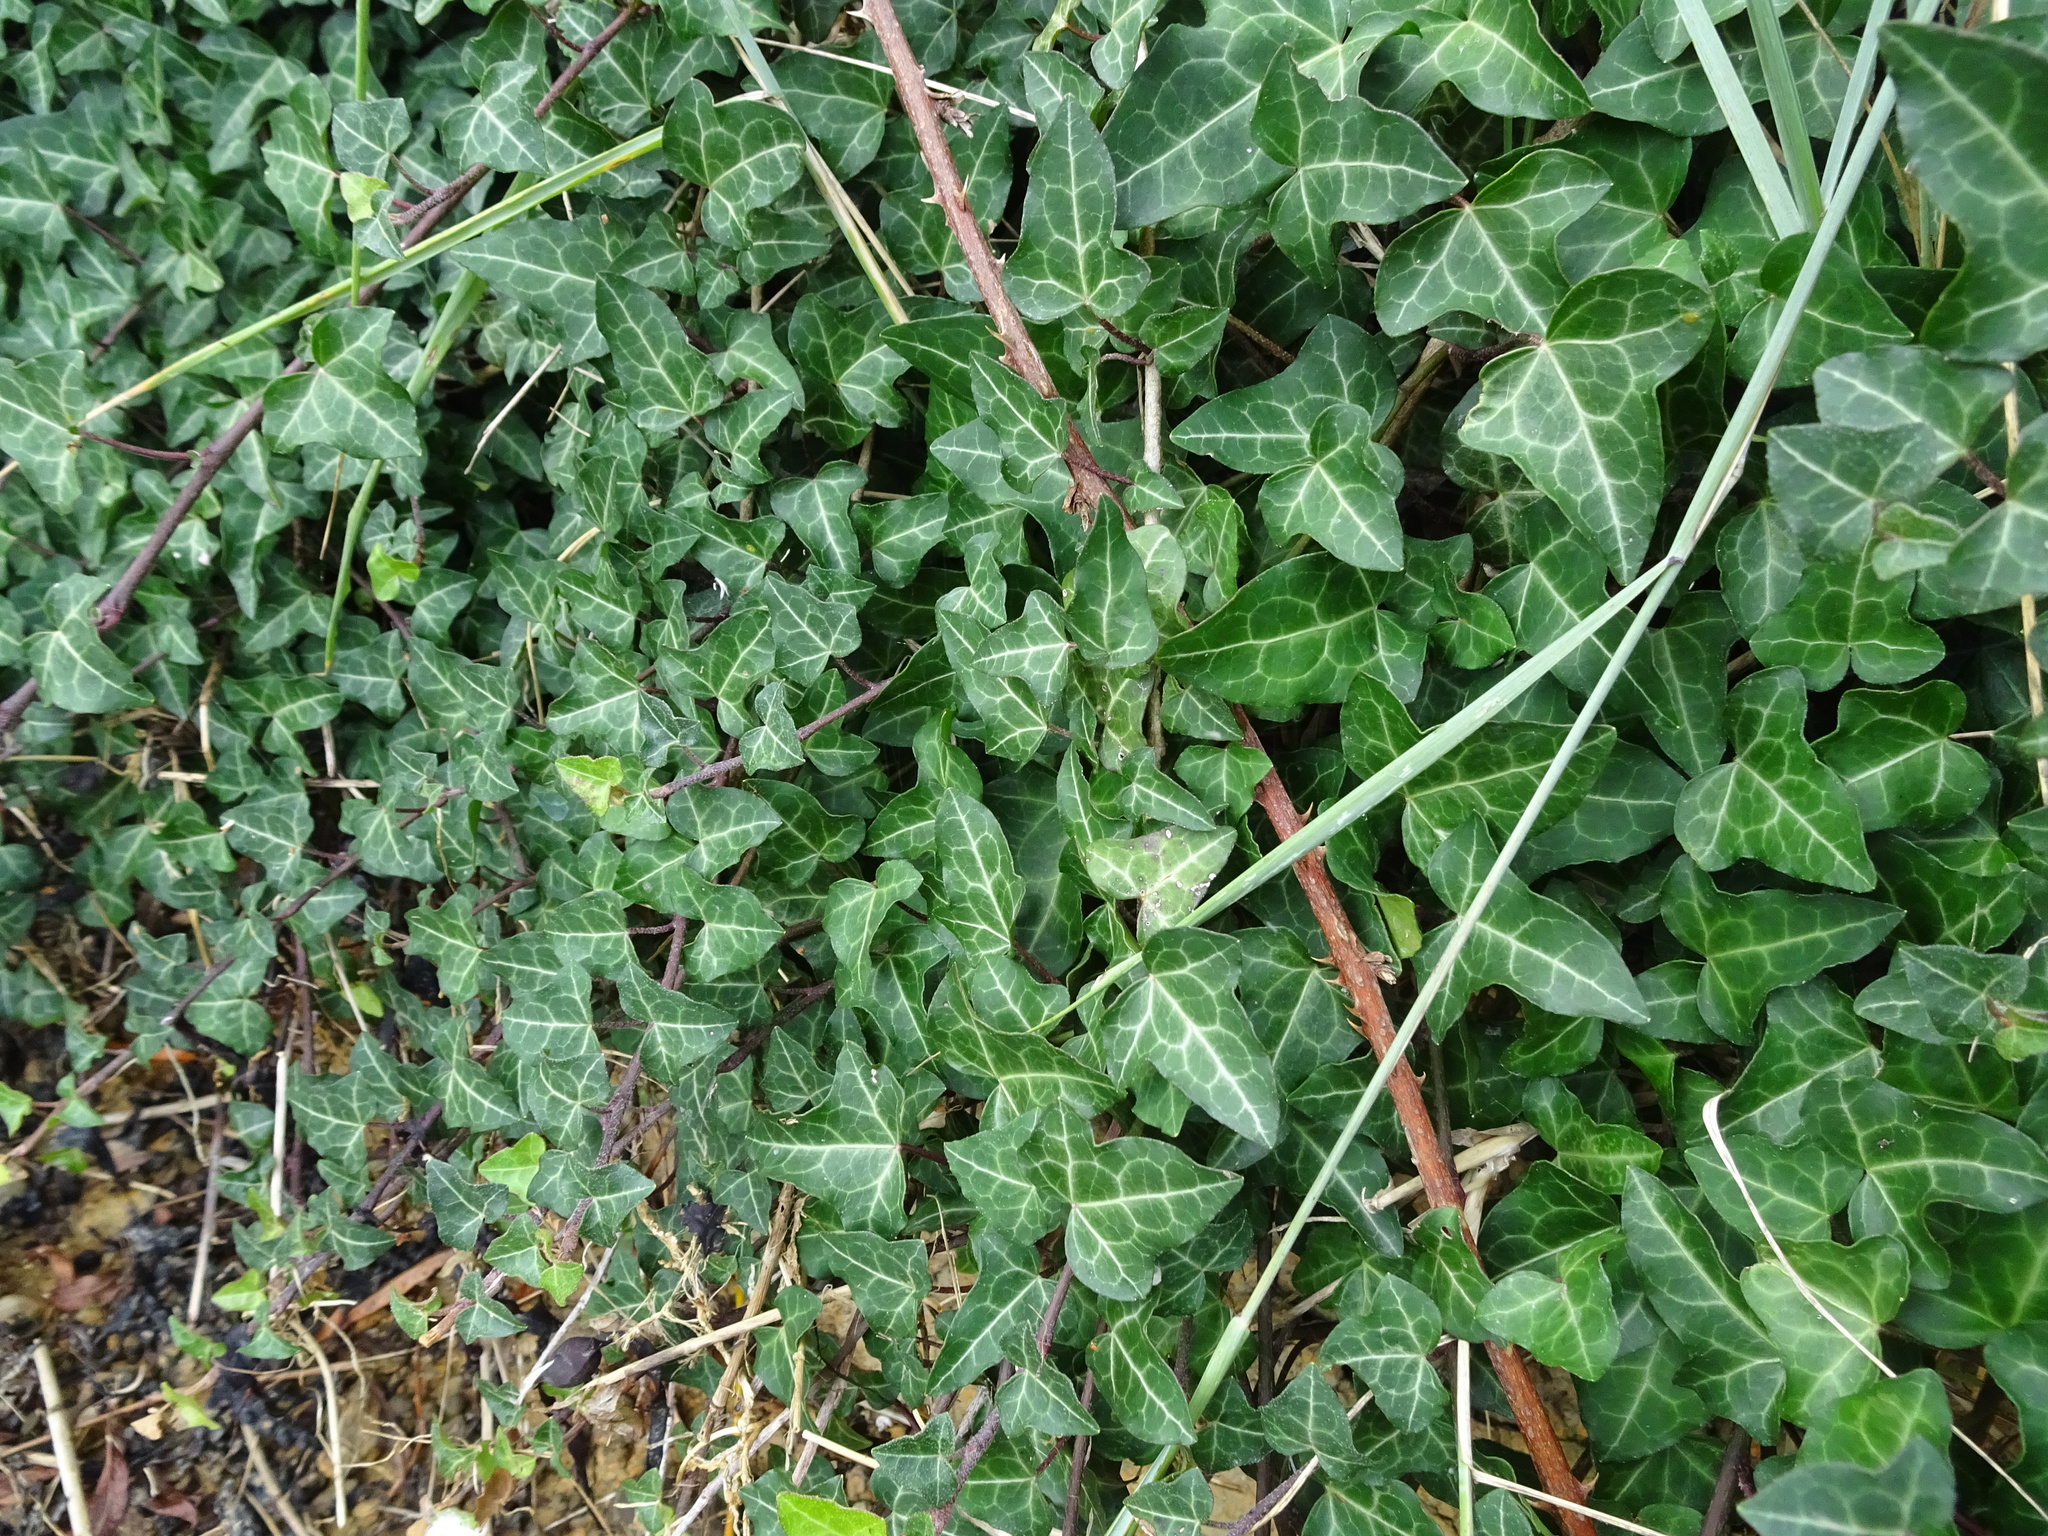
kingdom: Plantae
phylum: Tracheophyta
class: Magnoliopsida
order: Apiales
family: Araliaceae
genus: Hedera
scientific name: Hedera helix
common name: Ivy
